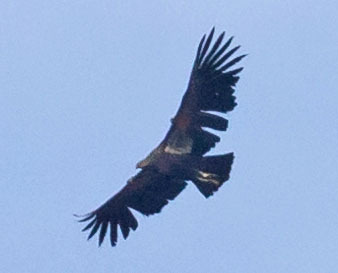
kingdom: Animalia
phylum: Chordata
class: Aves
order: Accipitriformes
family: Cathartidae
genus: Gymnogyps
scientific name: Gymnogyps californianus
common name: California condor
